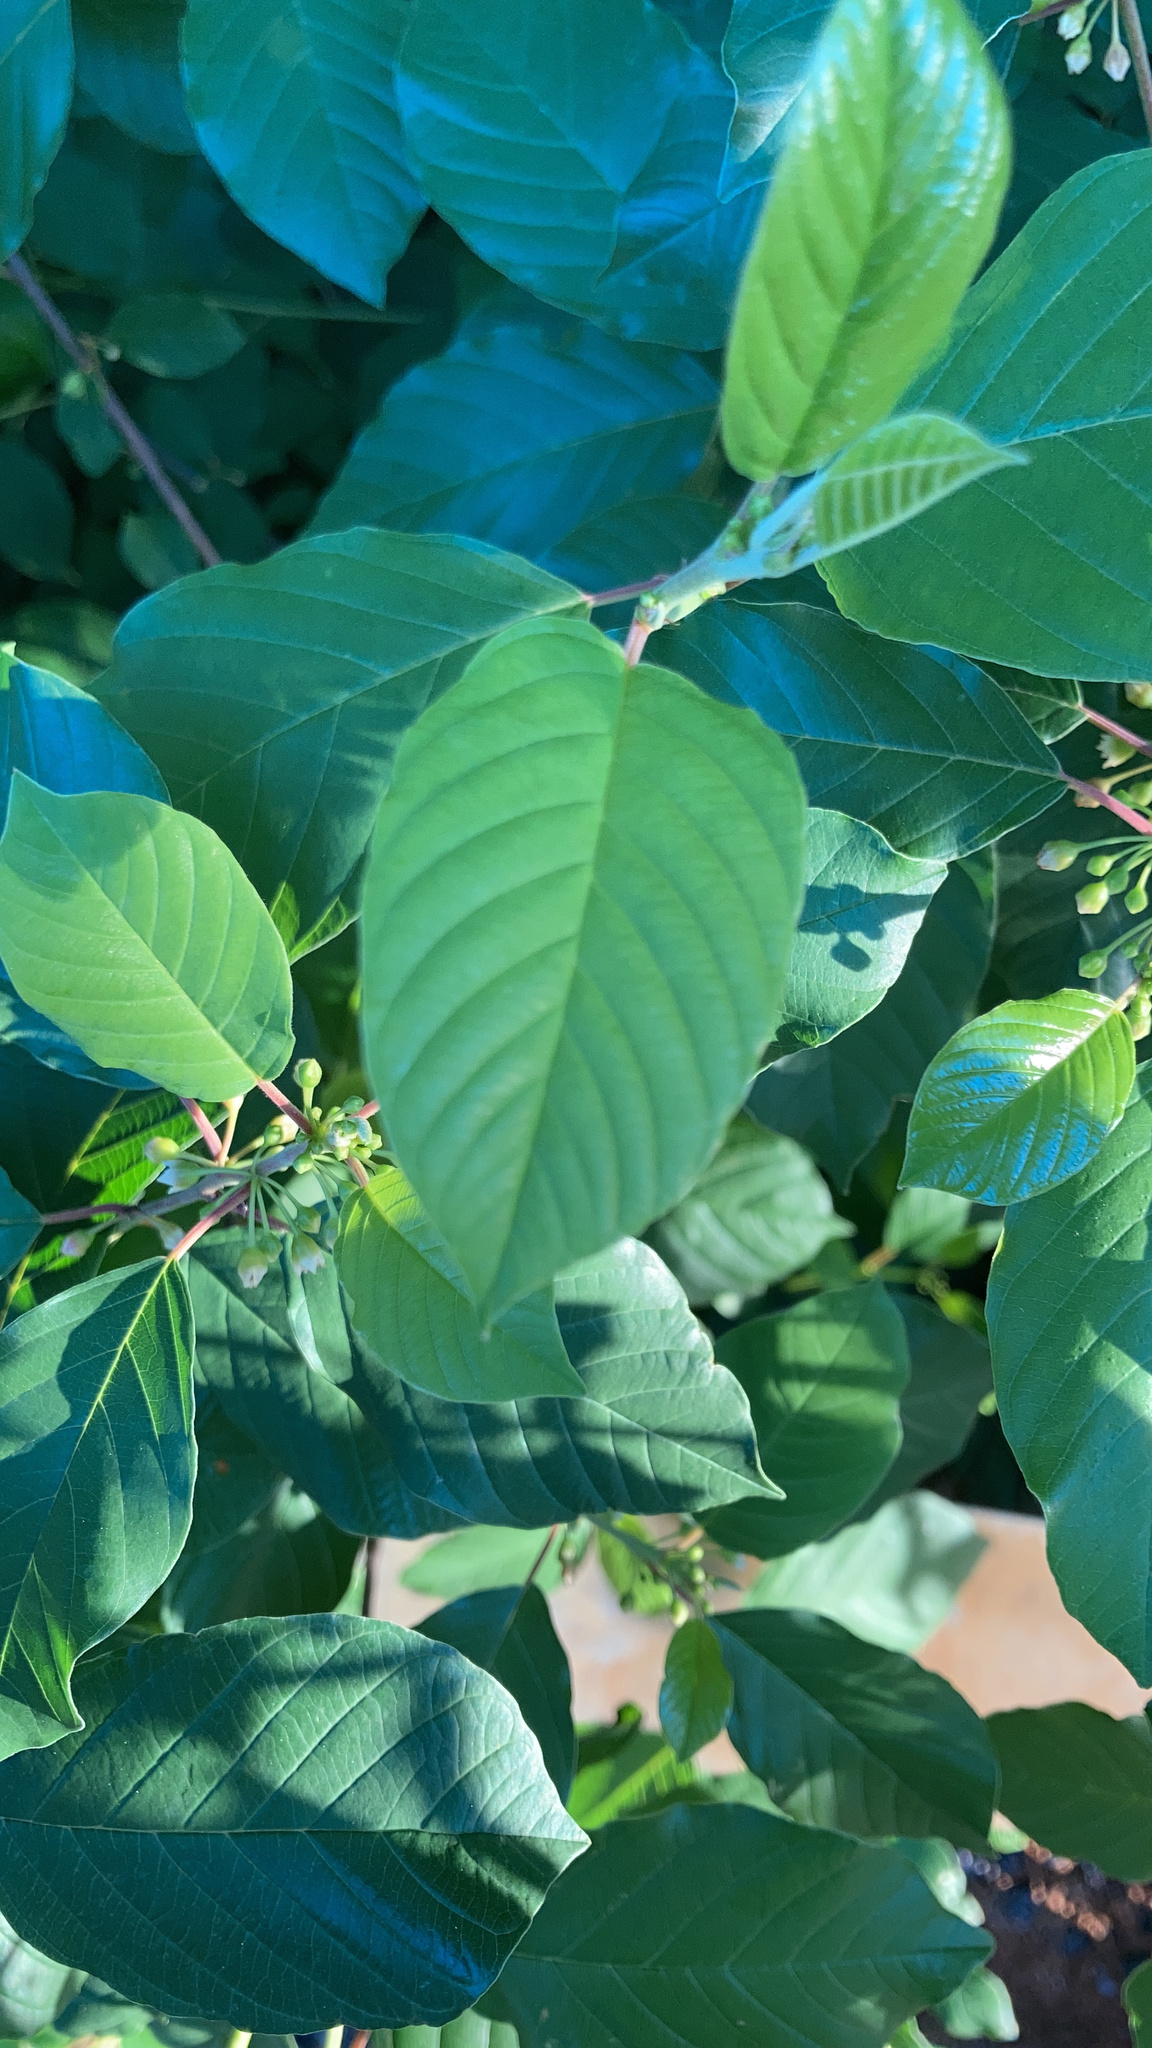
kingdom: Plantae
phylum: Tracheophyta
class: Magnoliopsida
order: Rosales
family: Rhamnaceae
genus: Frangula
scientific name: Frangula alnus
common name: Alder buckthorn
